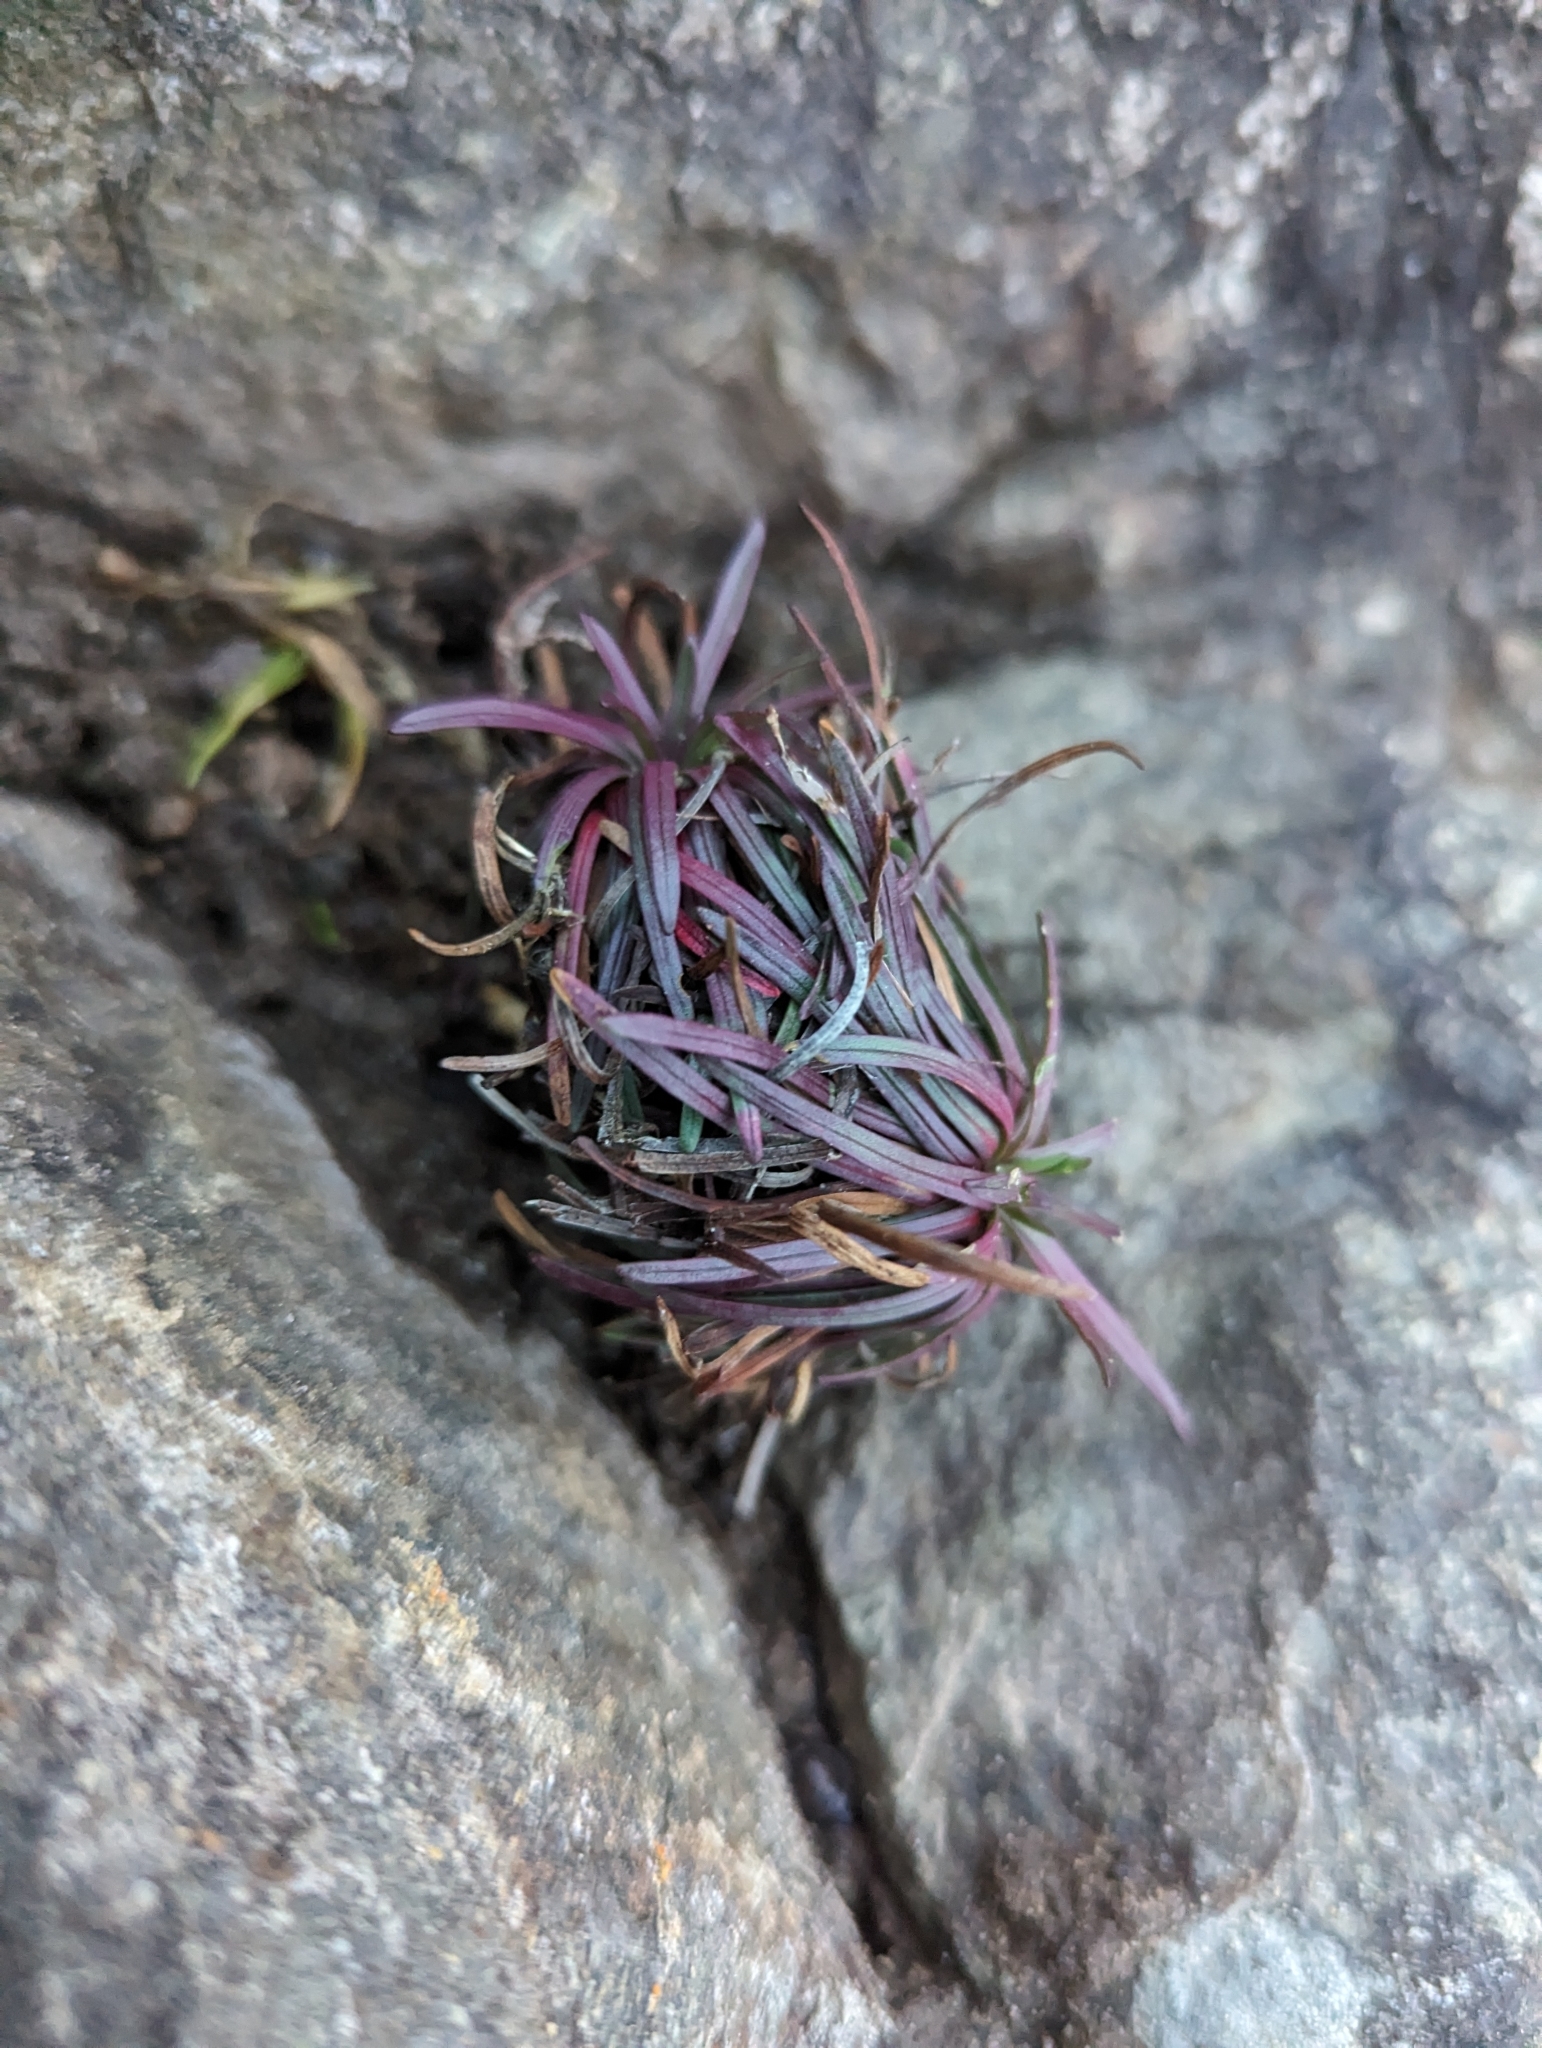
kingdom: Plantae
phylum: Tracheophyta
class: Magnoliopsida
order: Caryophyllales
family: Plumbaginaceae
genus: Armeria
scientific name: Armeria maritima
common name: Thrift
